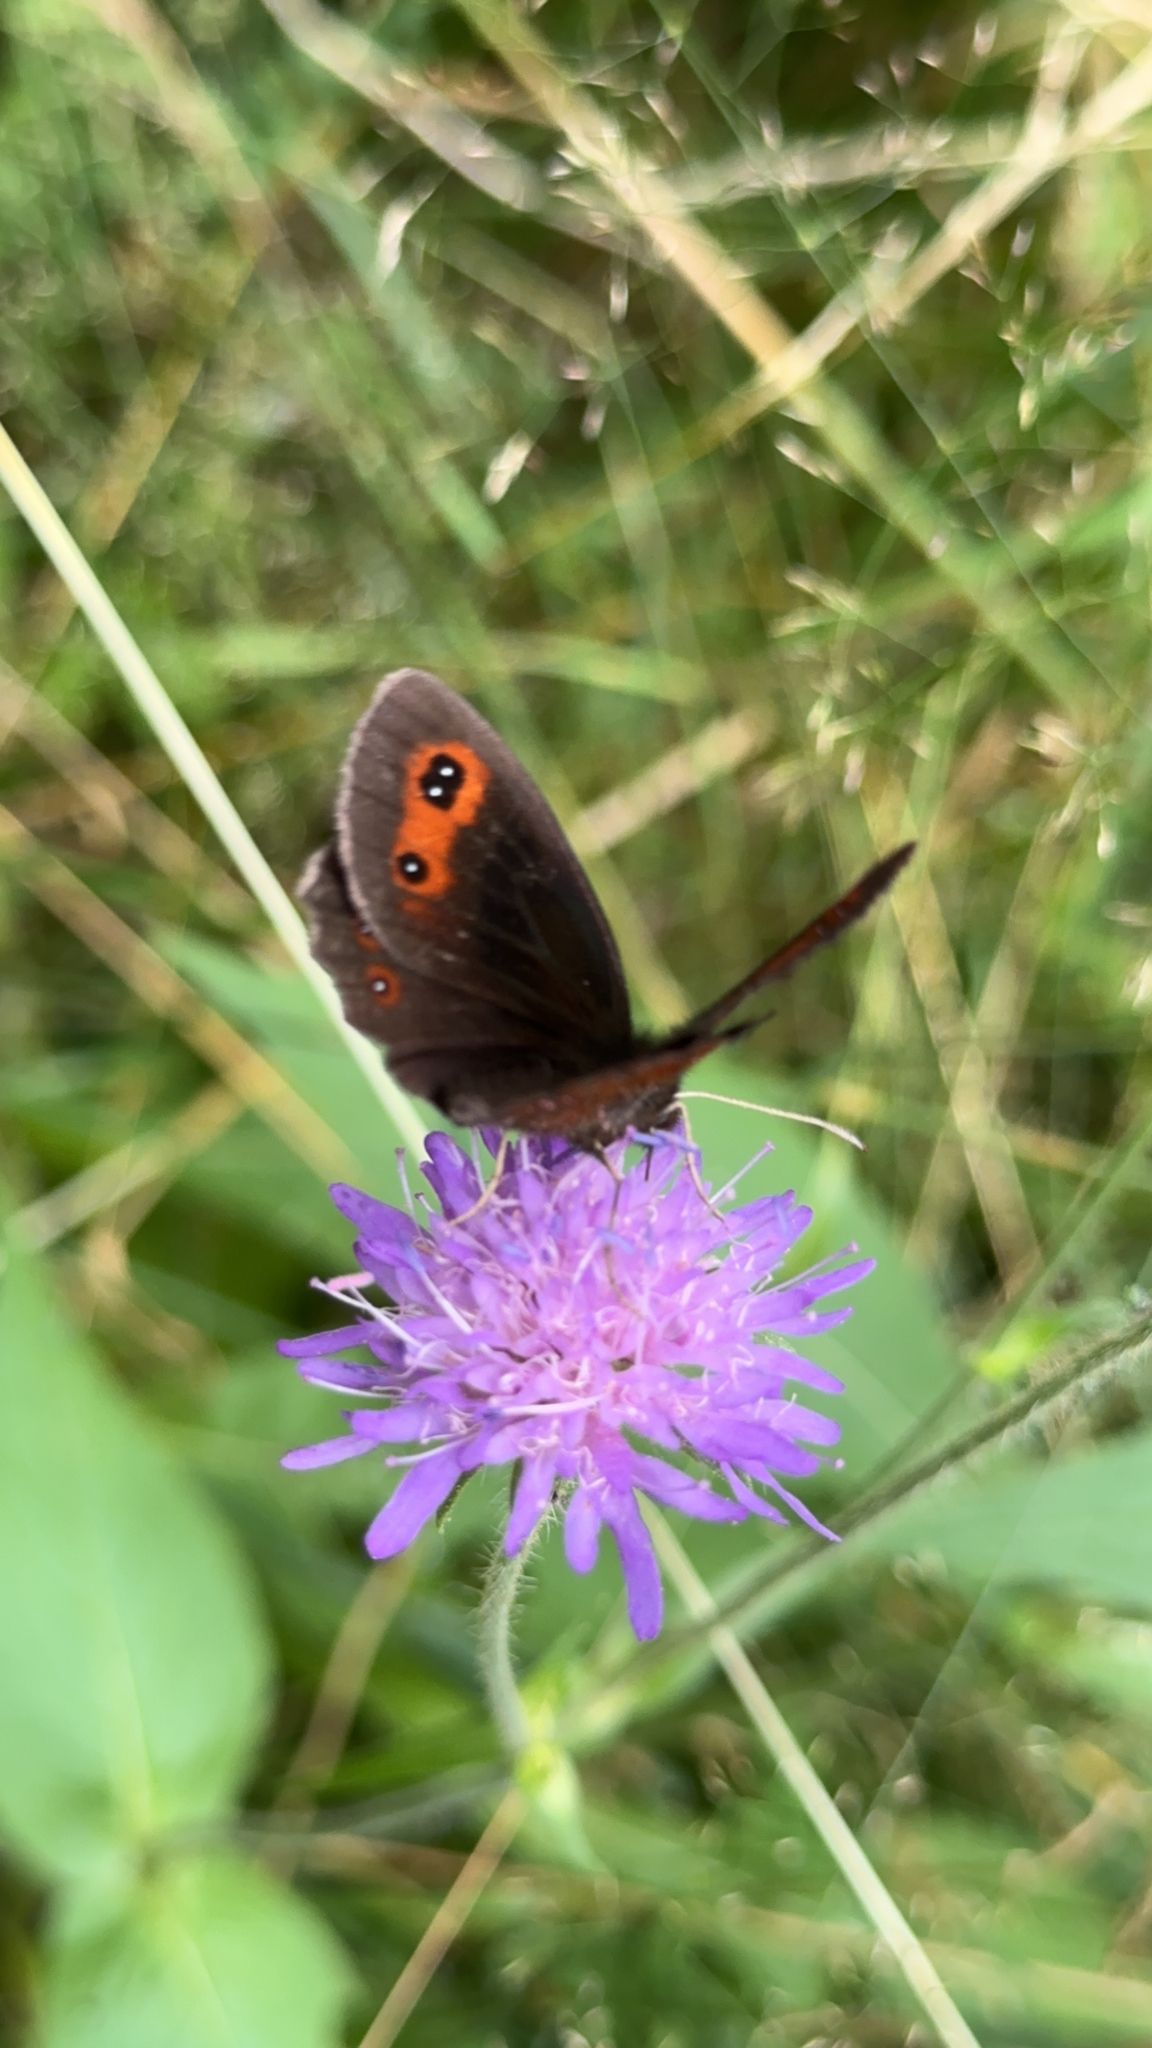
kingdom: Animalia
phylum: Arthropoda
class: Insecta
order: Lepidoptera
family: Nymphalidae
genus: Erebia
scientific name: Erebia aethiops
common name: Scotch argus
